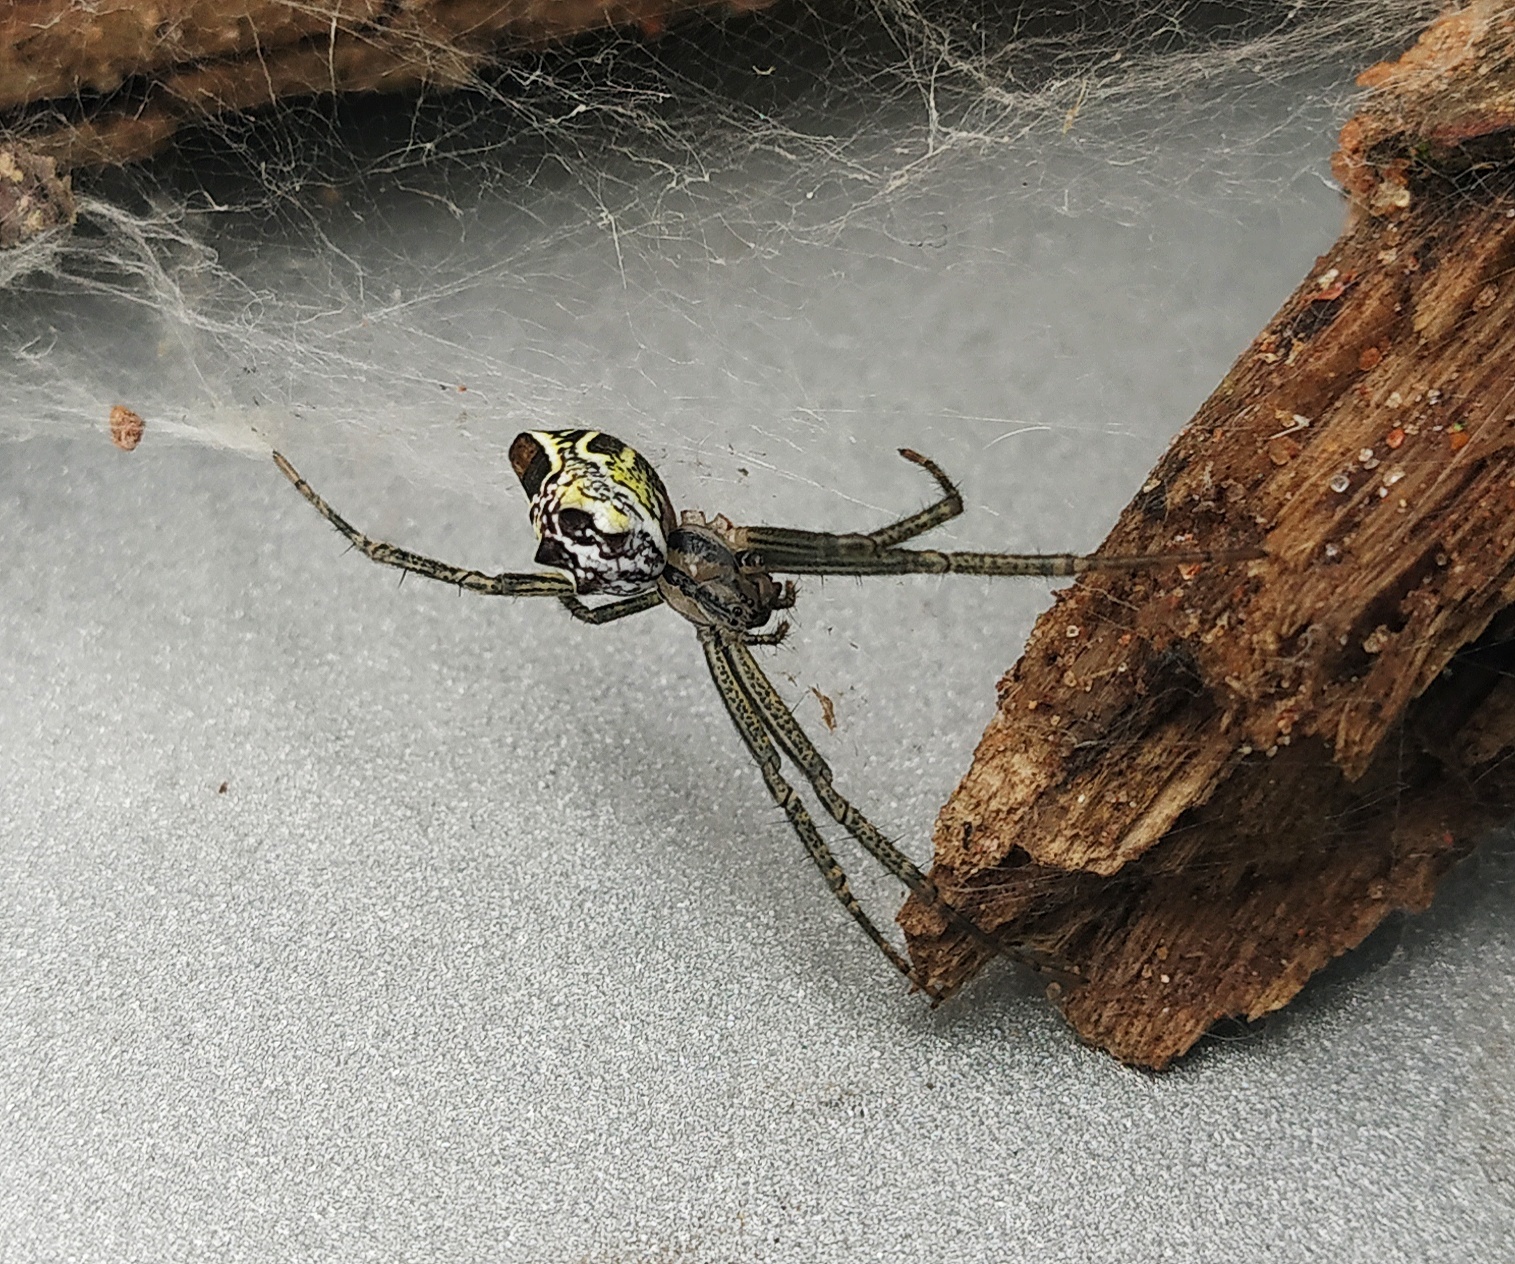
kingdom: Animalia
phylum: Arthropoda
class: Arachnida
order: Araneae
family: Araneidae
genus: Cyrtophora
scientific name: Cyrtophora cicatrosa
